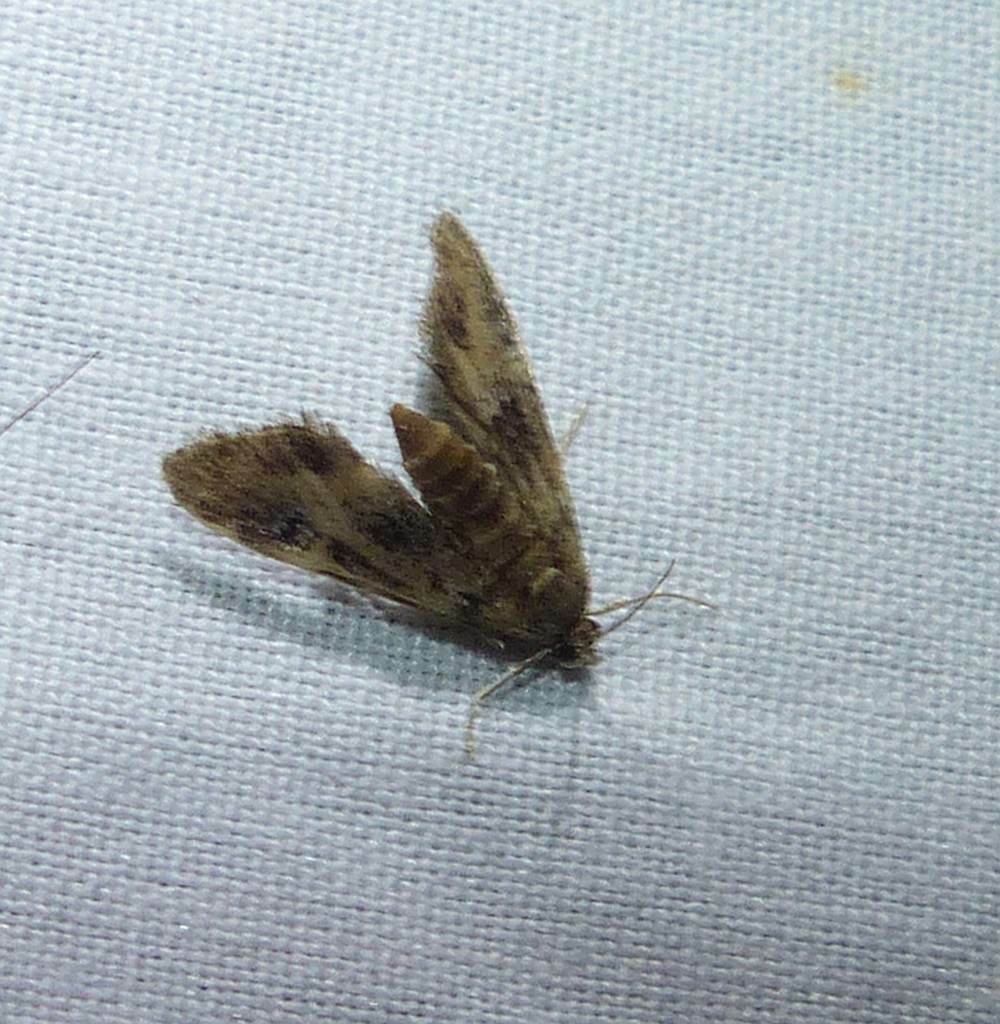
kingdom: Animalia
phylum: Arthropoda
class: Insecta
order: Lepidoptera
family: Crambidae
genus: Elophila
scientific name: Elophila obliteralis
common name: Waterlily leafcutter moth
